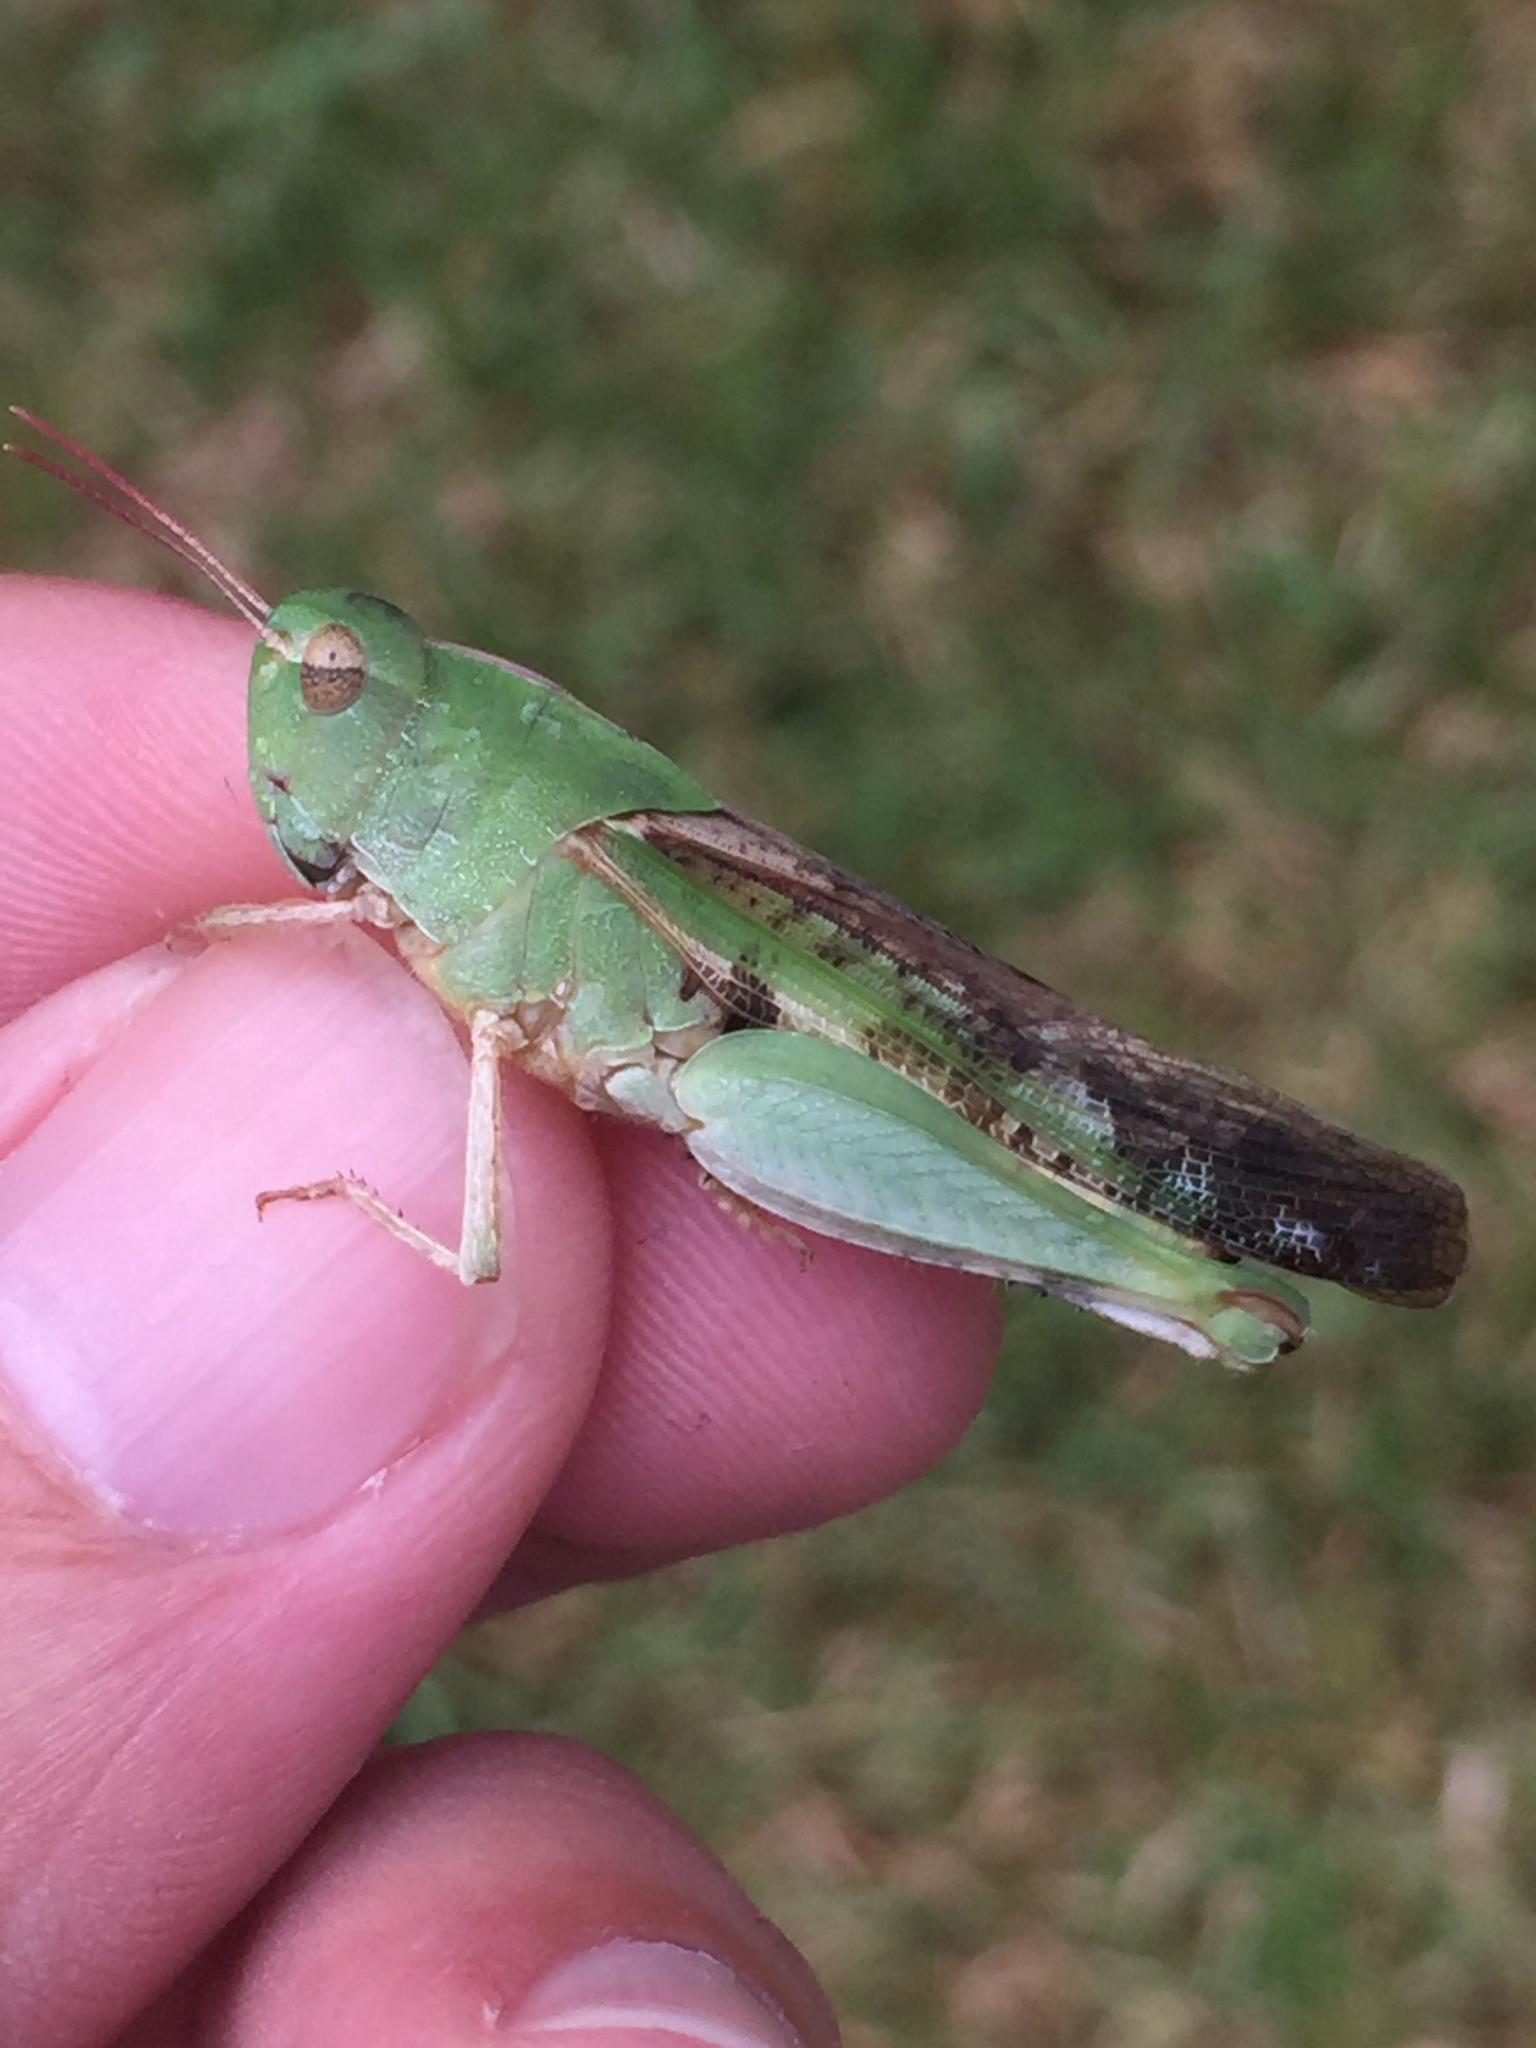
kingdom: Animalia
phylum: Arthropoda
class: Insecta
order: Orthoptera
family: Acrididae
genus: Chortophaga
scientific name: Chortophaga viridifasciata
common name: Green-striped grasshopper
